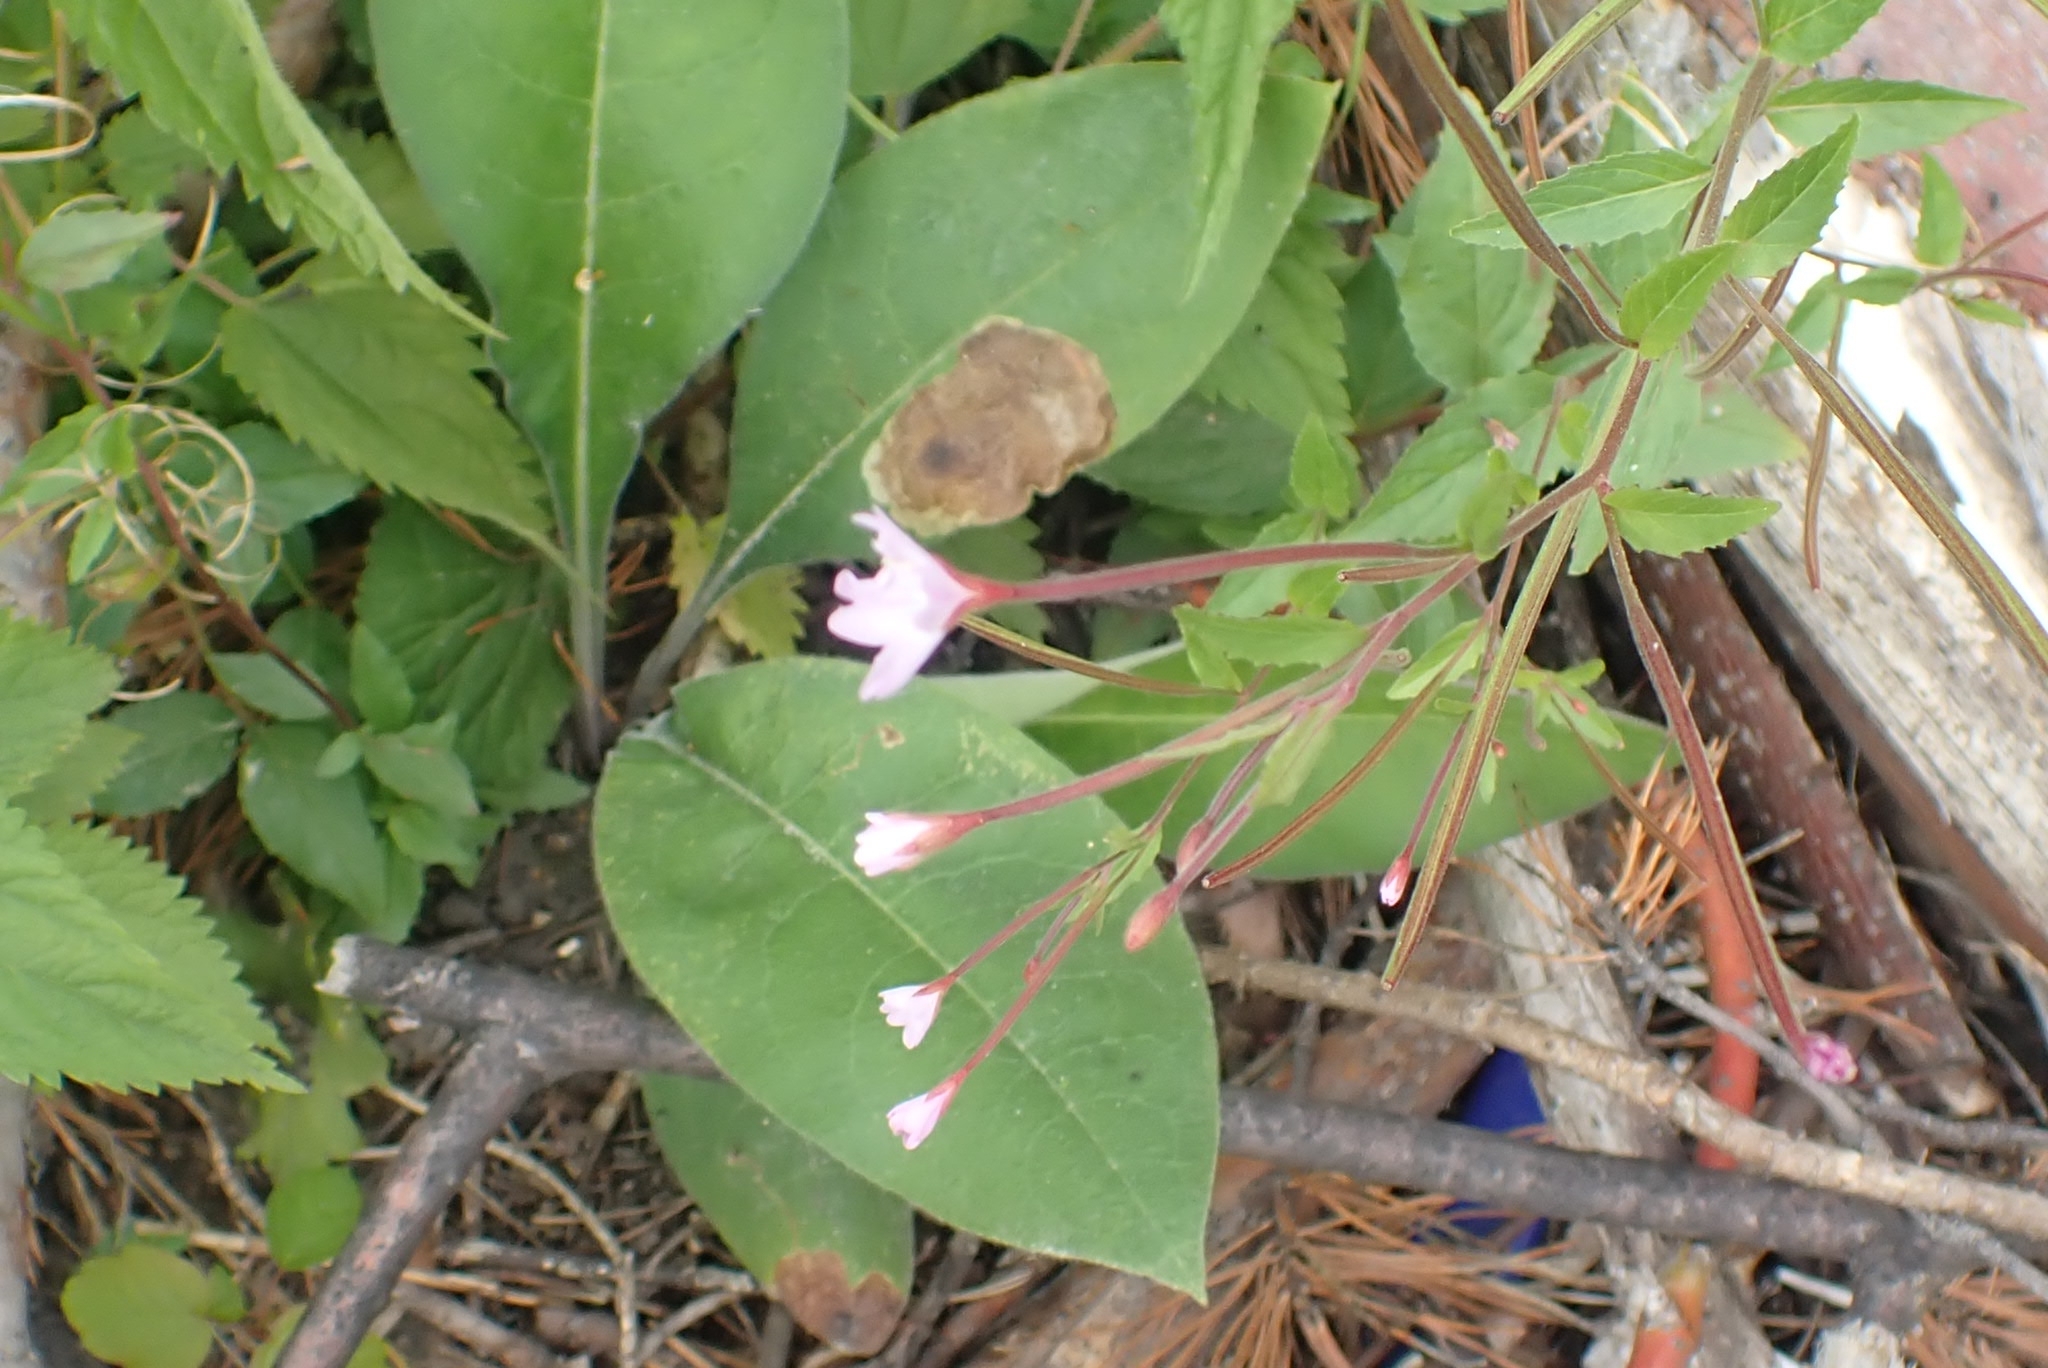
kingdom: Plantae
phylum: Tracheophyta
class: Magnoliopsida
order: Myrtales
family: Onagraceae
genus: Epilobium
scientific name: Epilobium montanum
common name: Broad-leaved willowherb
